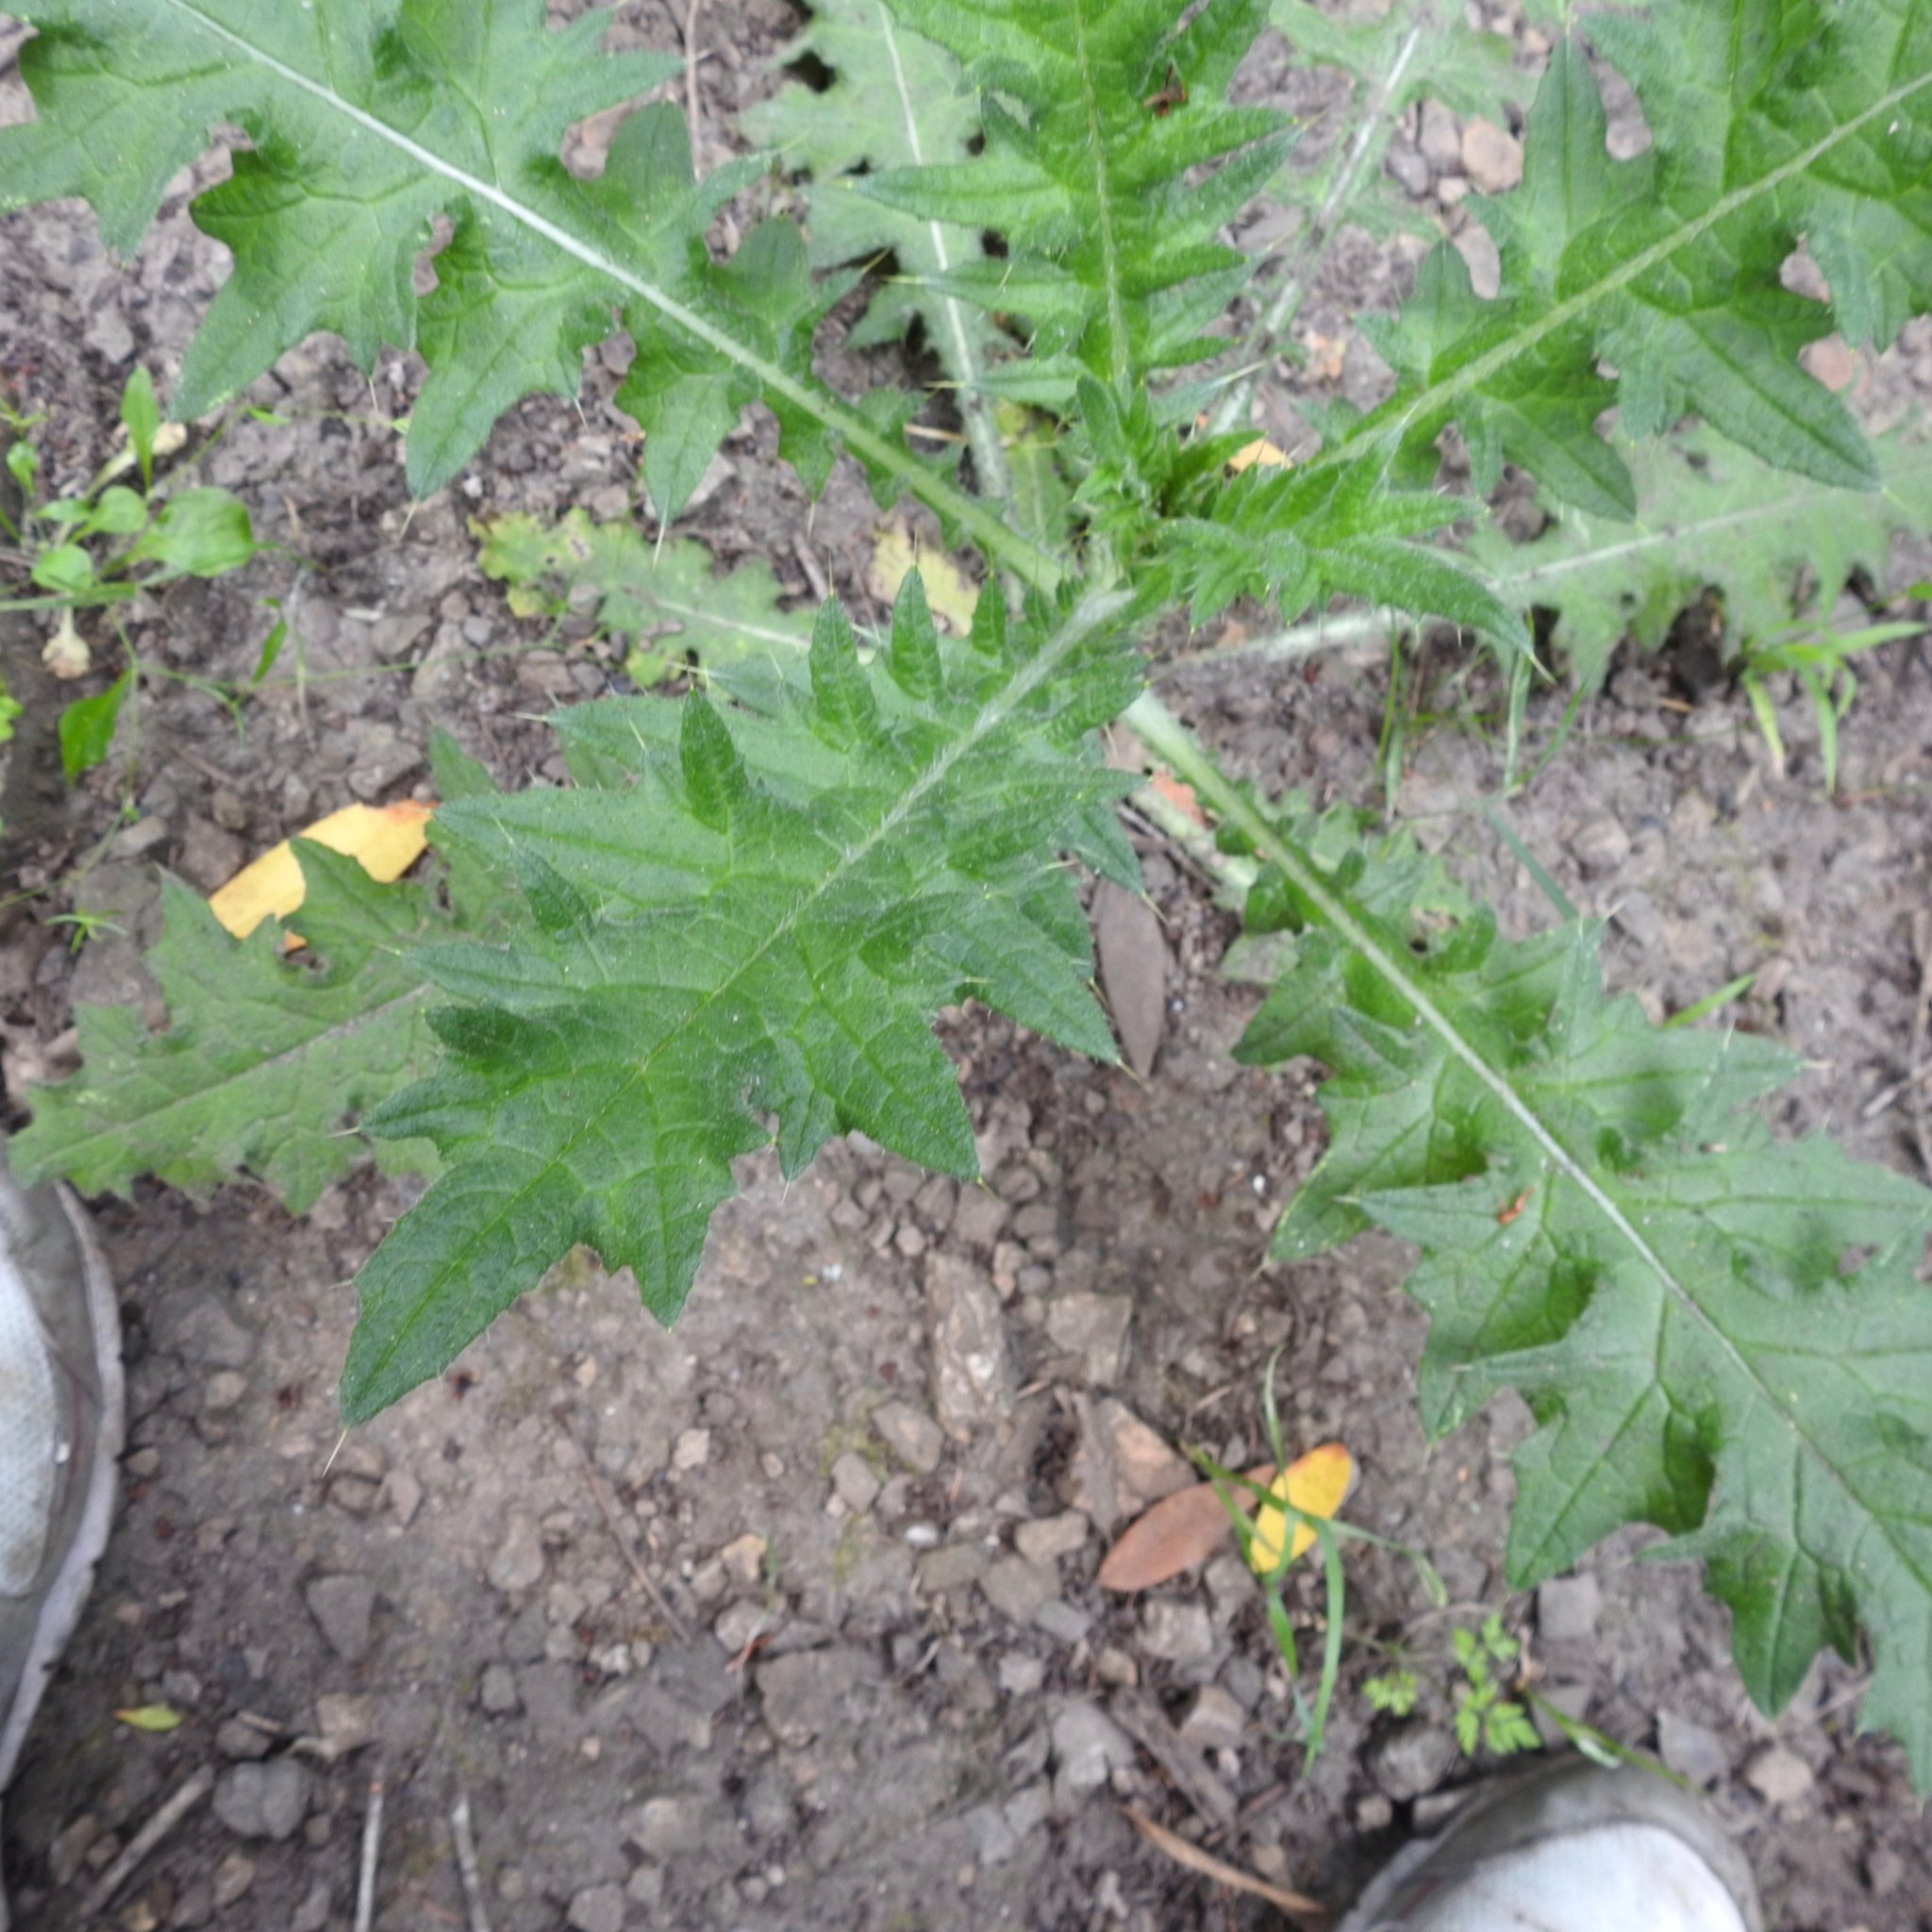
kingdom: Plantae
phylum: Tracheophyta
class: Magnoliopsida
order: Asterales
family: Asteraceae
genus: Cirsium
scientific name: Cirsium vulgare
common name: Bull thistle
